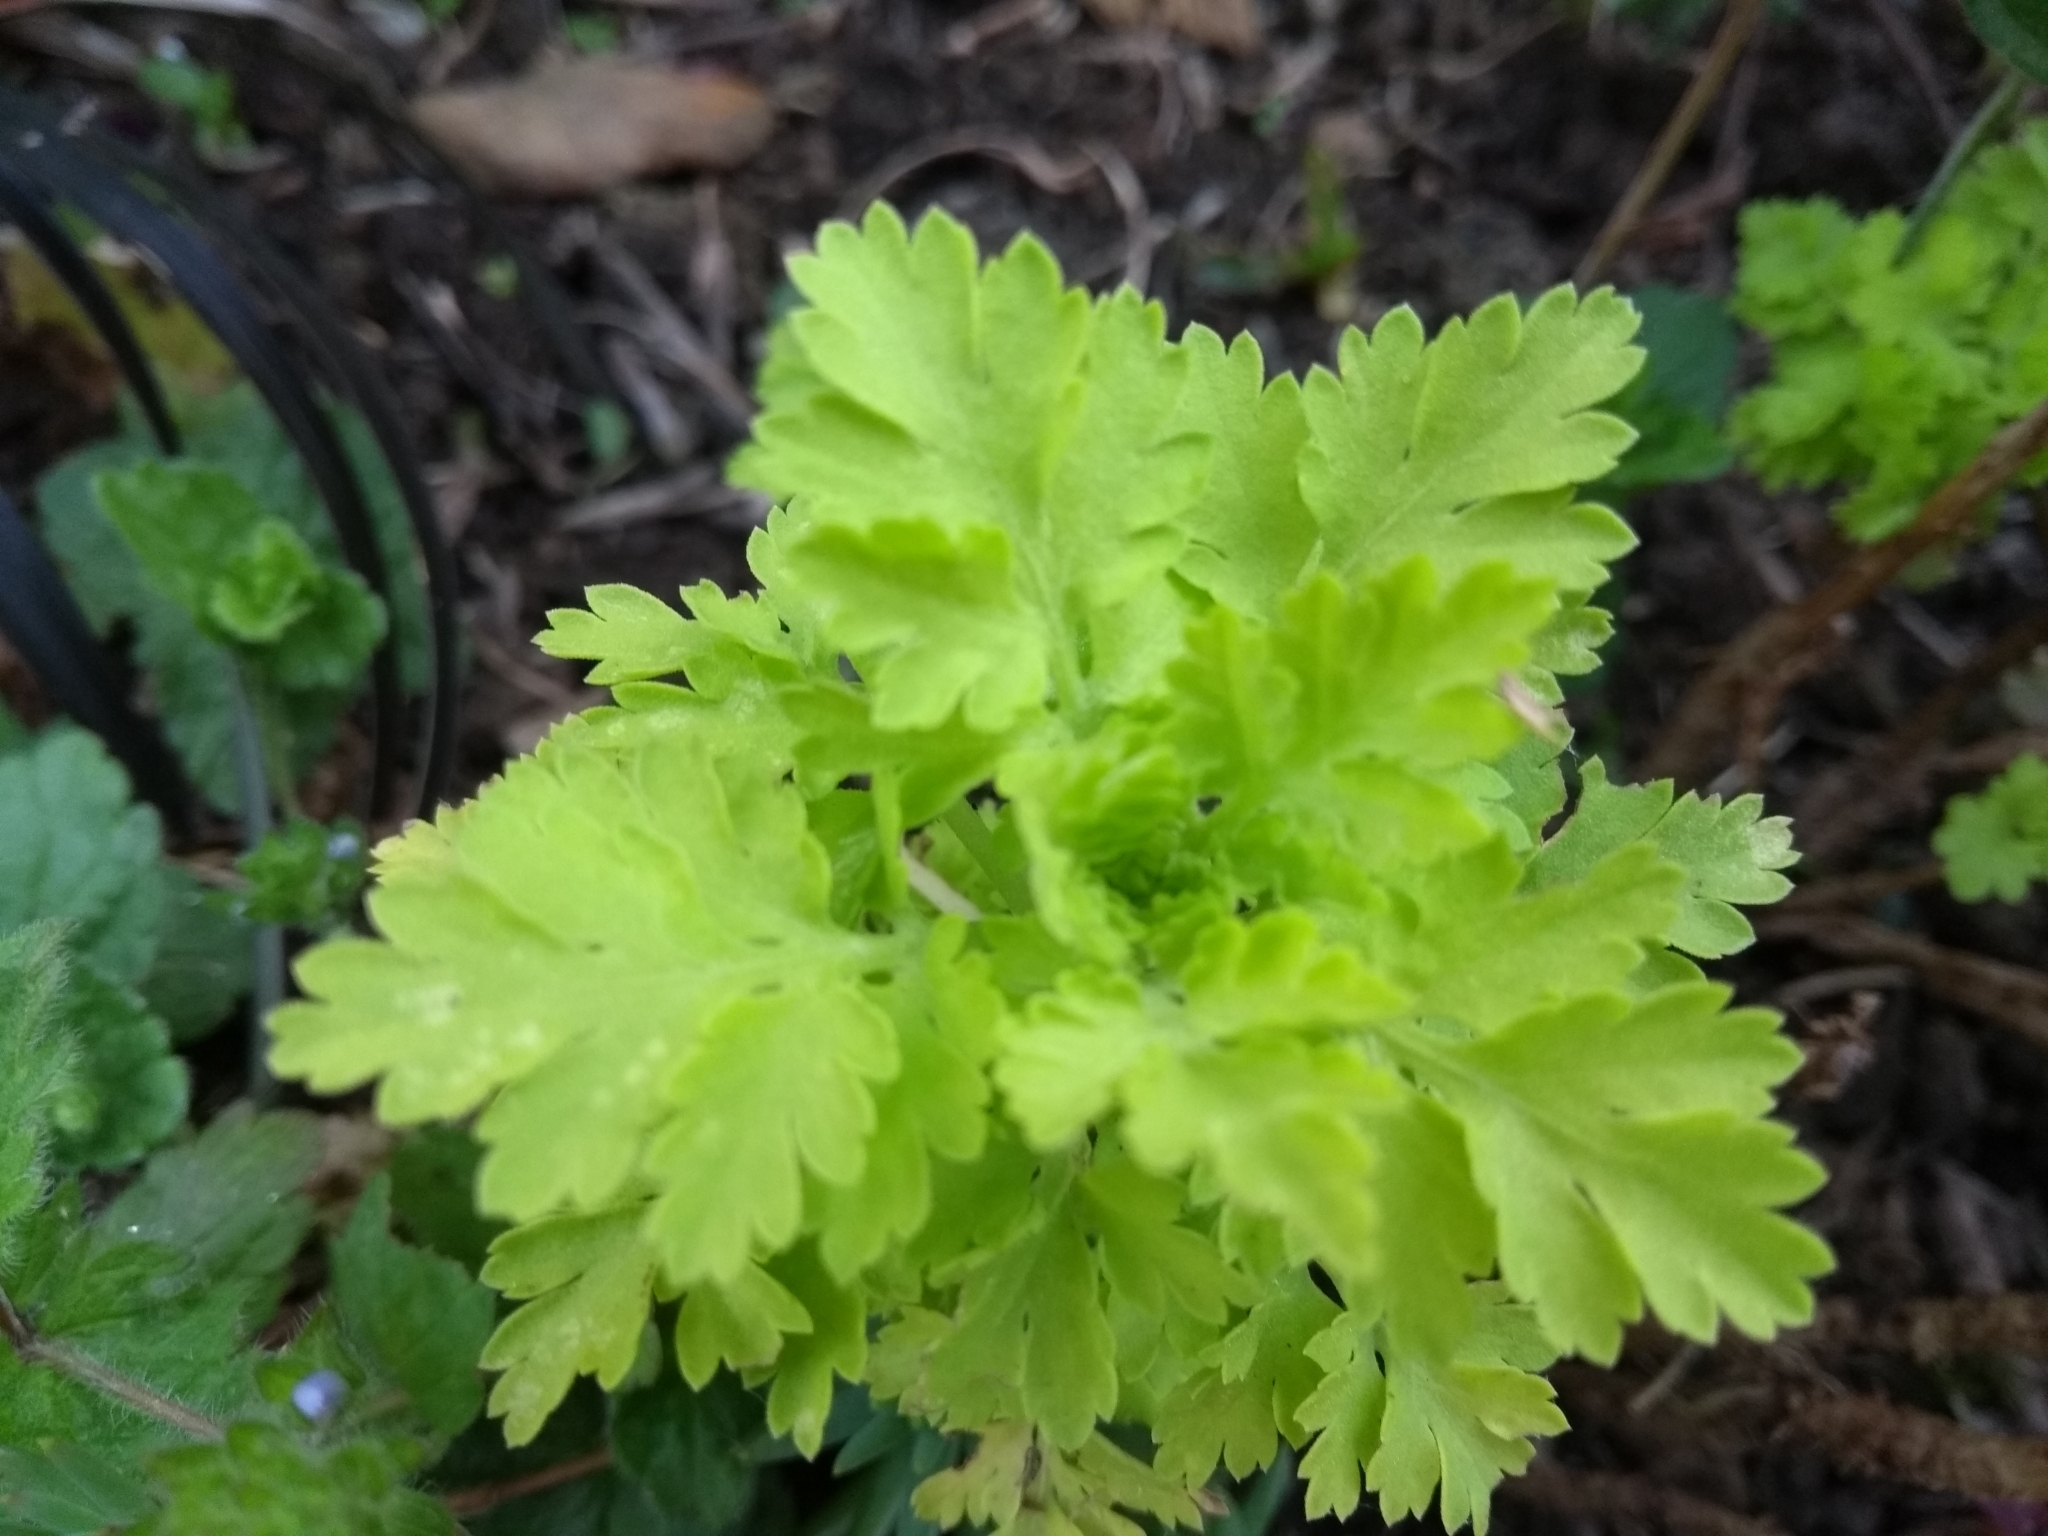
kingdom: Plantae
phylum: Tracheophyta
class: Magnoliopsida
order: Asterales
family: Asteraceae
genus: Tanacetum
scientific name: Tanacetum parthenium
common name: Feverfew
